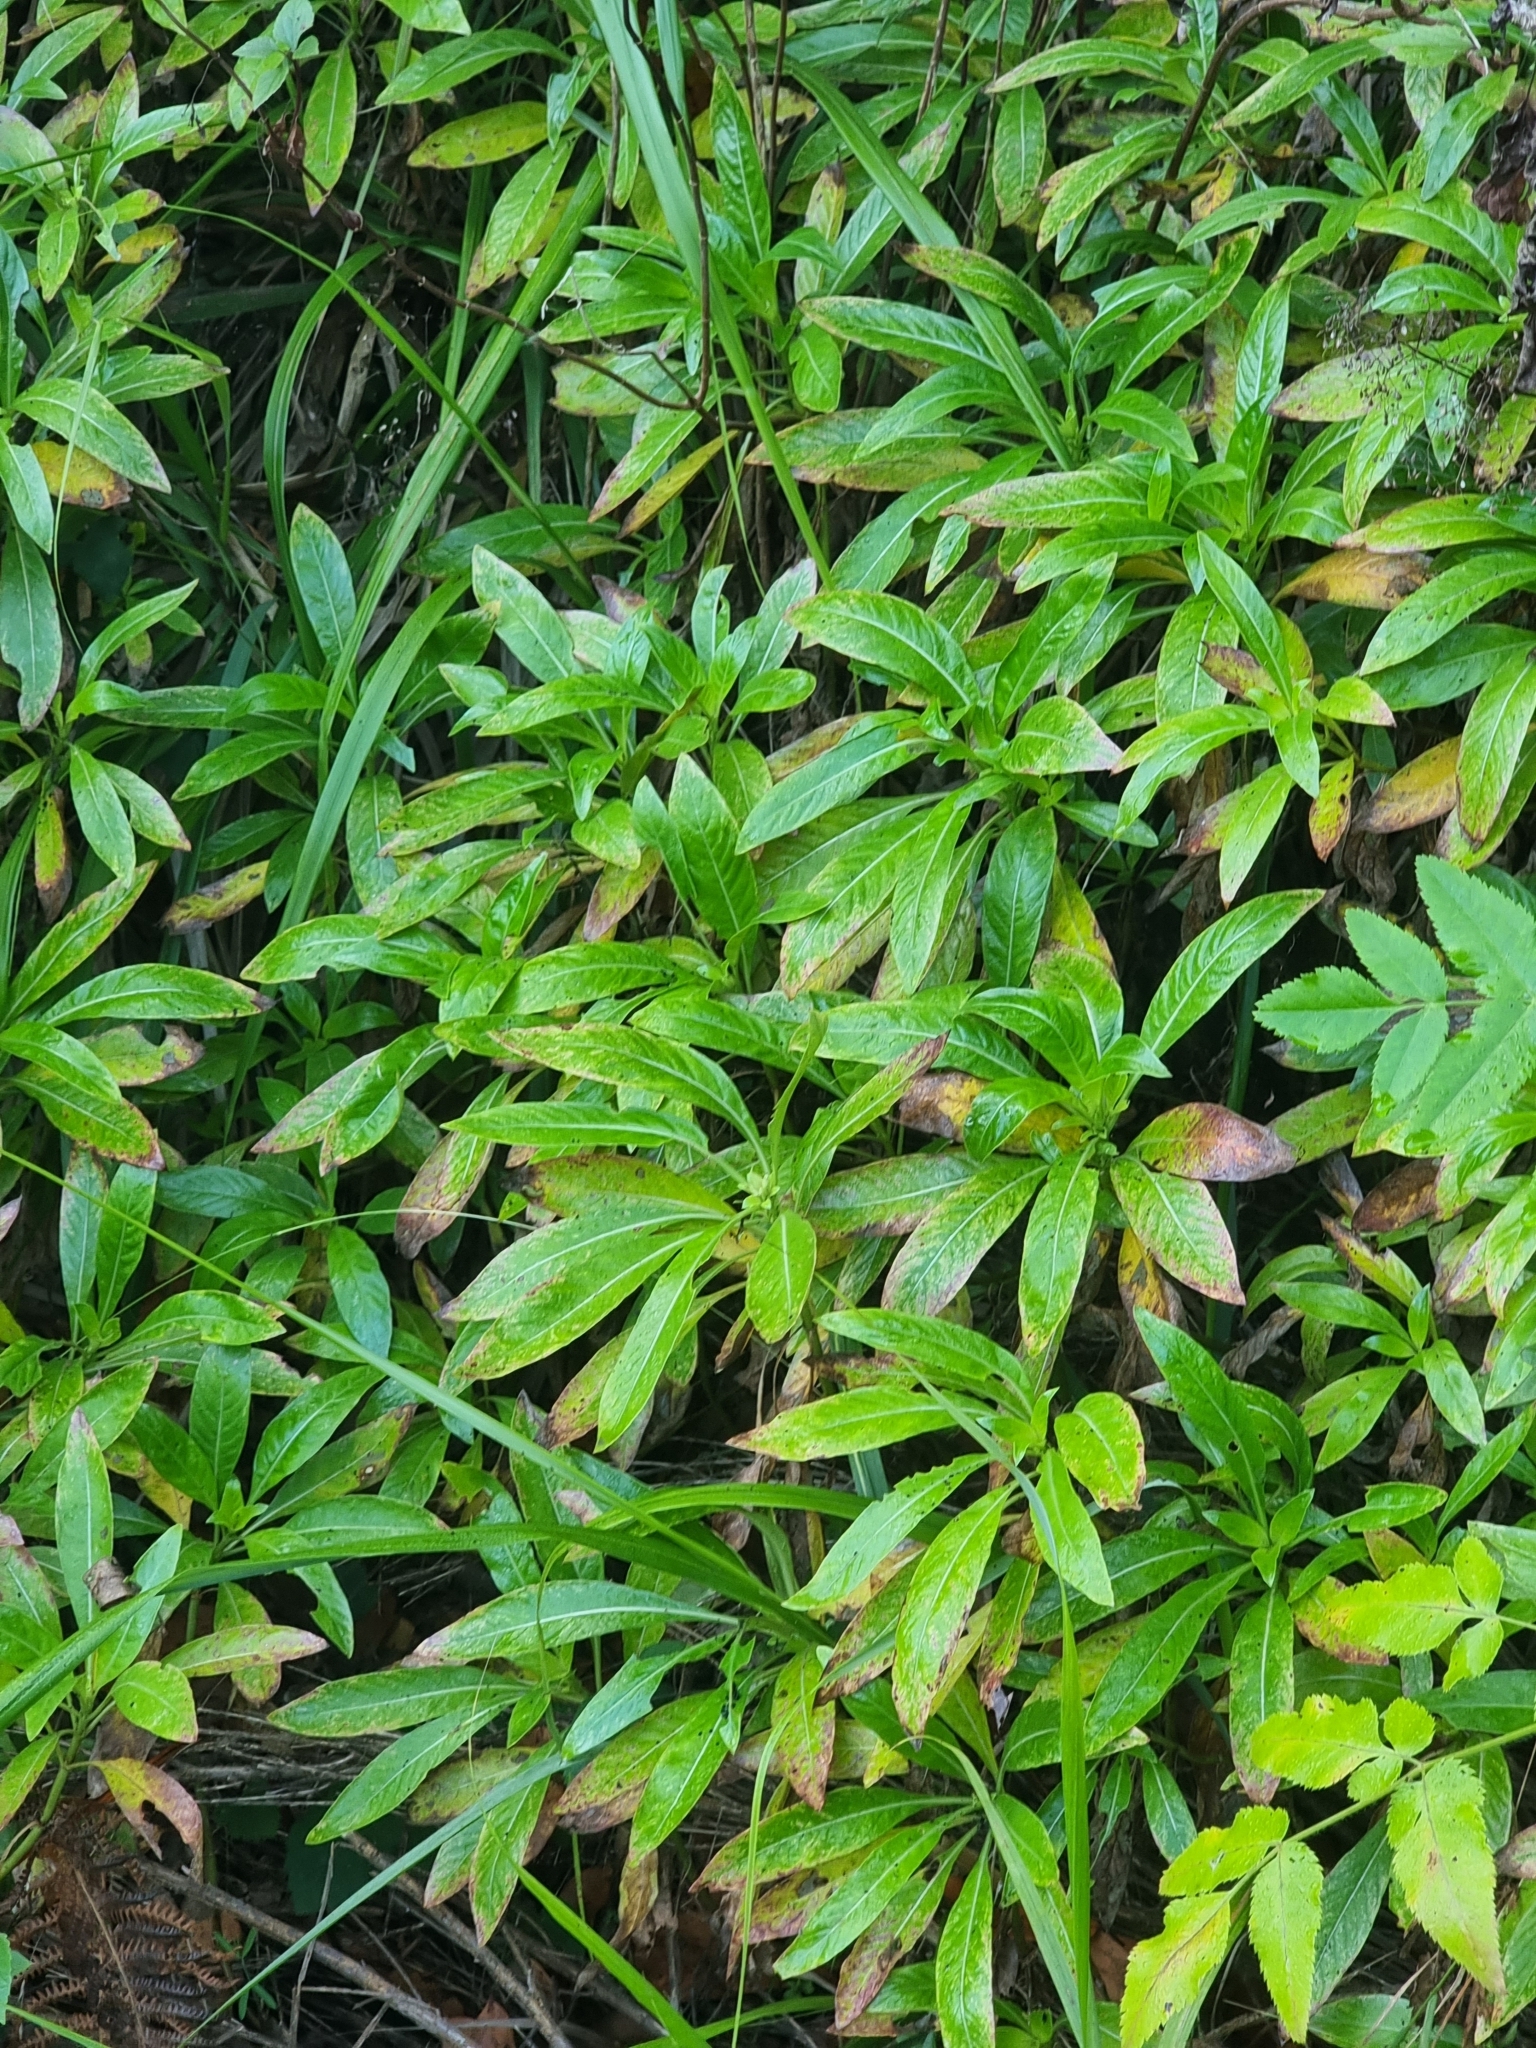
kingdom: Plantae
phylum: Tracheophyta
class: Magnoliopsida
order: Gentianales
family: Rubiaceae
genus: Phyllis
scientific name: Phyllis nobla
